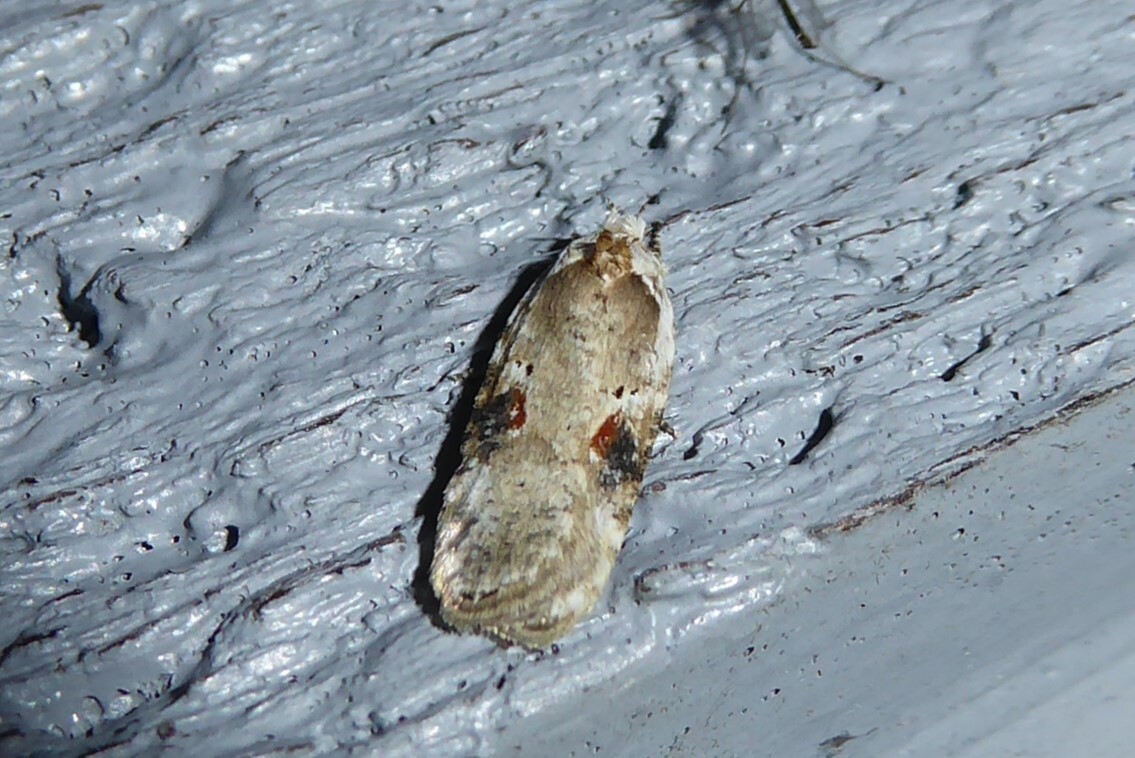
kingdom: Animalia
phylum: Arthropoda
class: Insecta
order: Lepidoptera
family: Depressariidae
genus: Agonopterix
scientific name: Agonopterix alstroemeriana
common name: Moth
